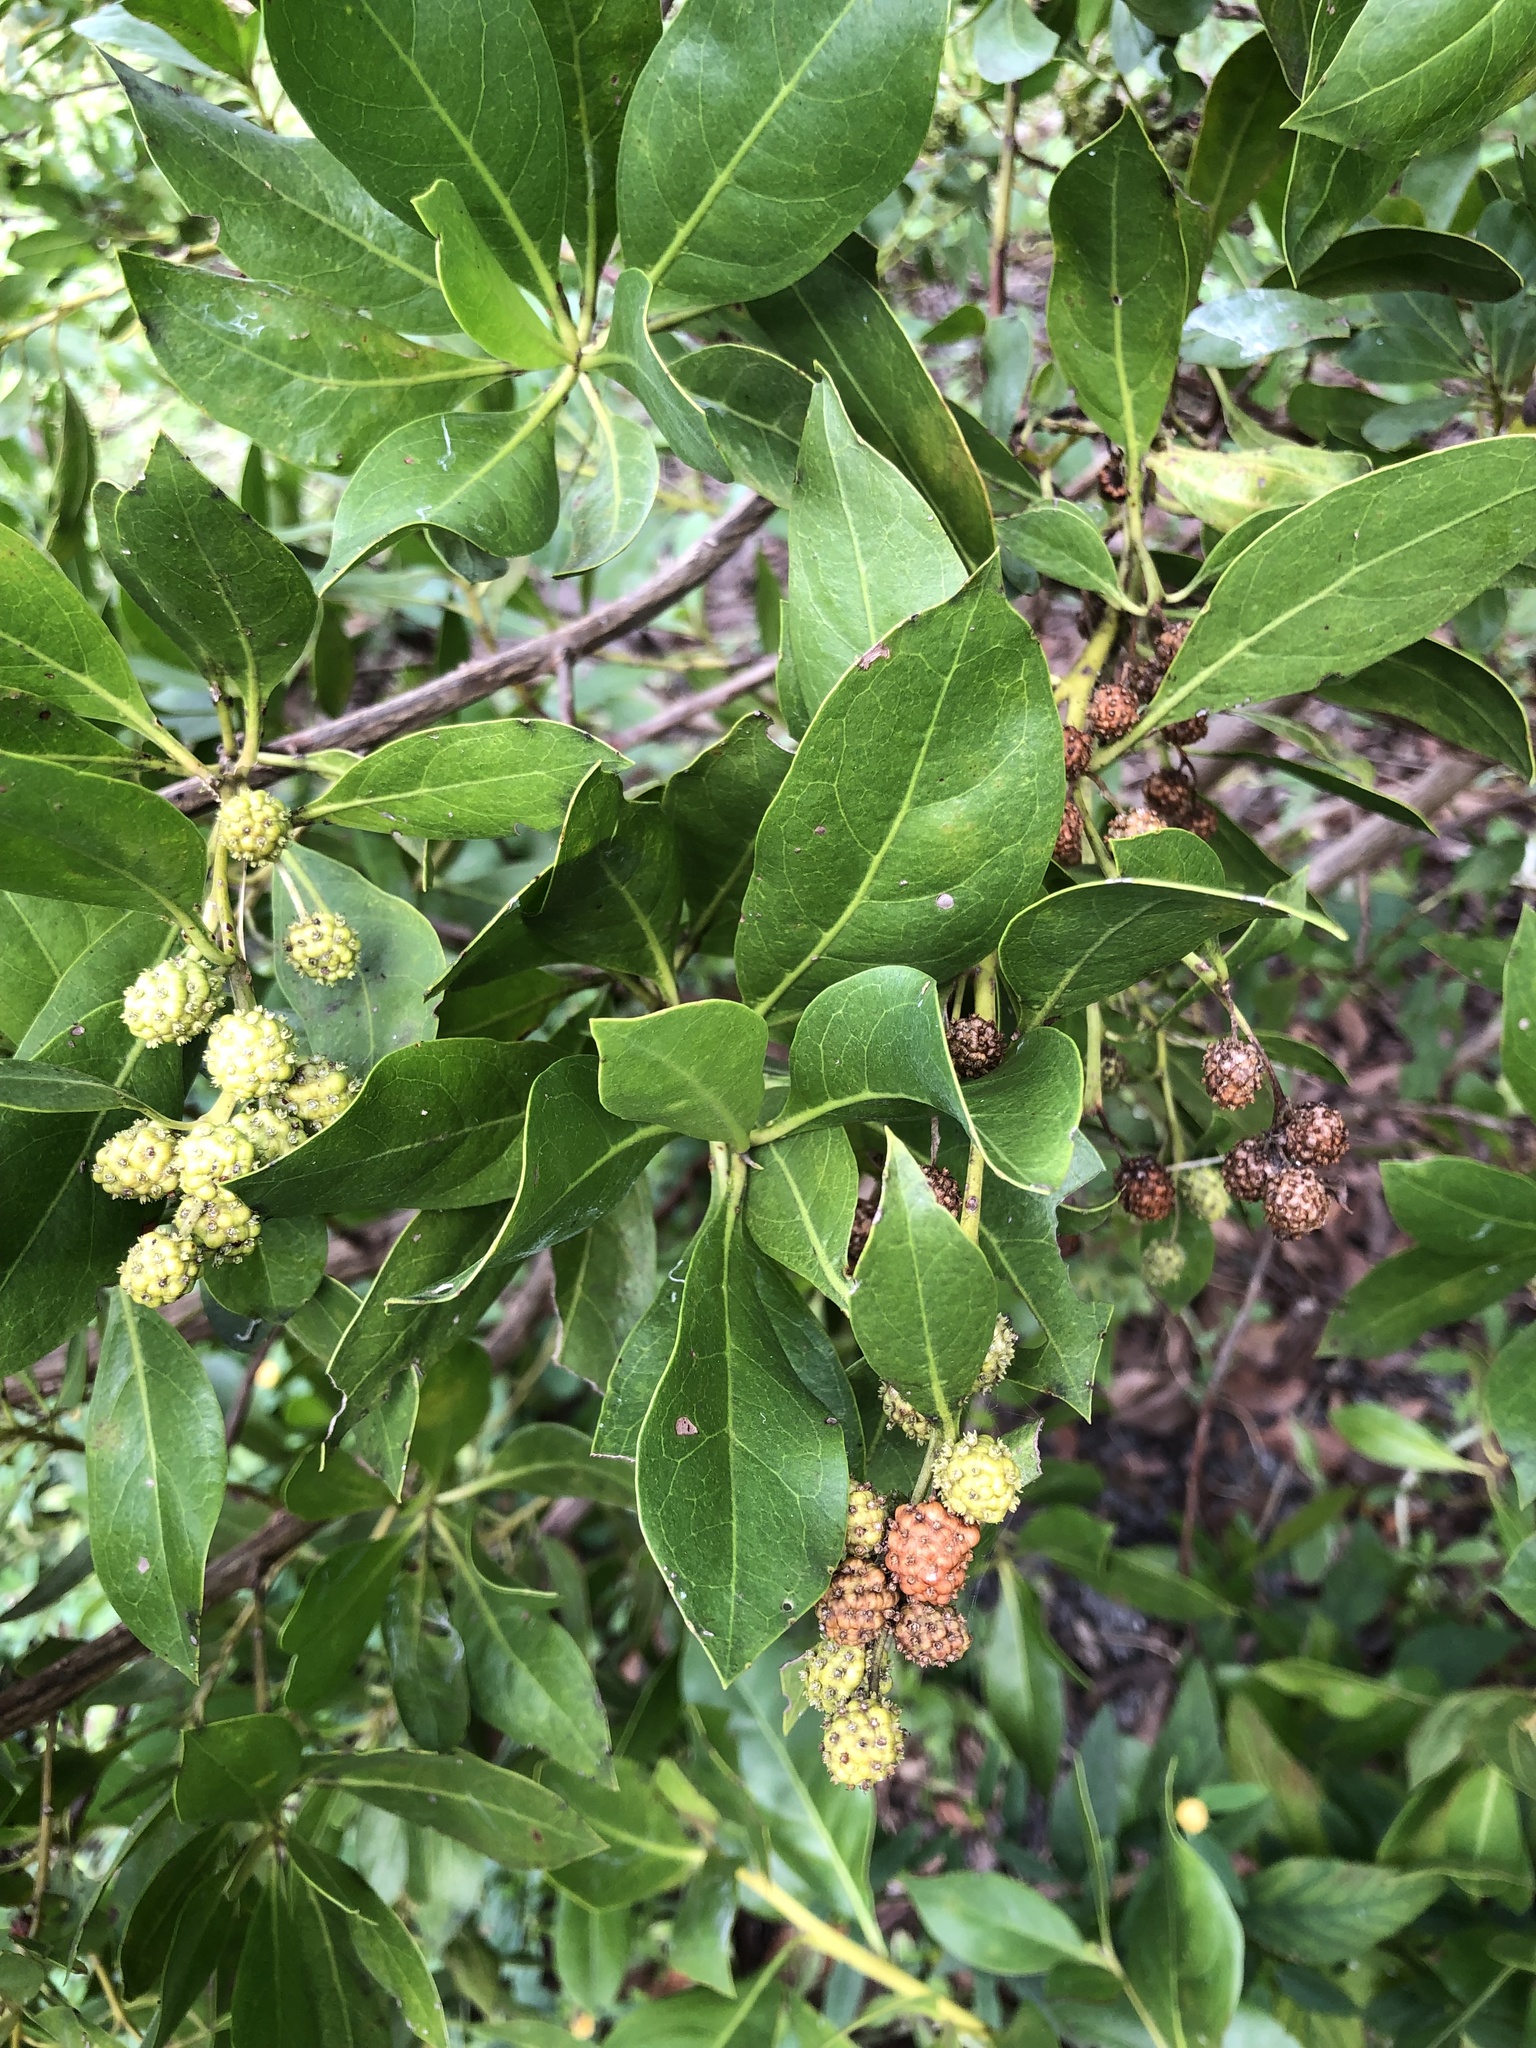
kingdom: Plantae
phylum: Tracheophyta
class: Magnoliopsida
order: Myrtales
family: Combretaceae
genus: Conocarpus
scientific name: Conocarpus erectus
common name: Button mangrove
